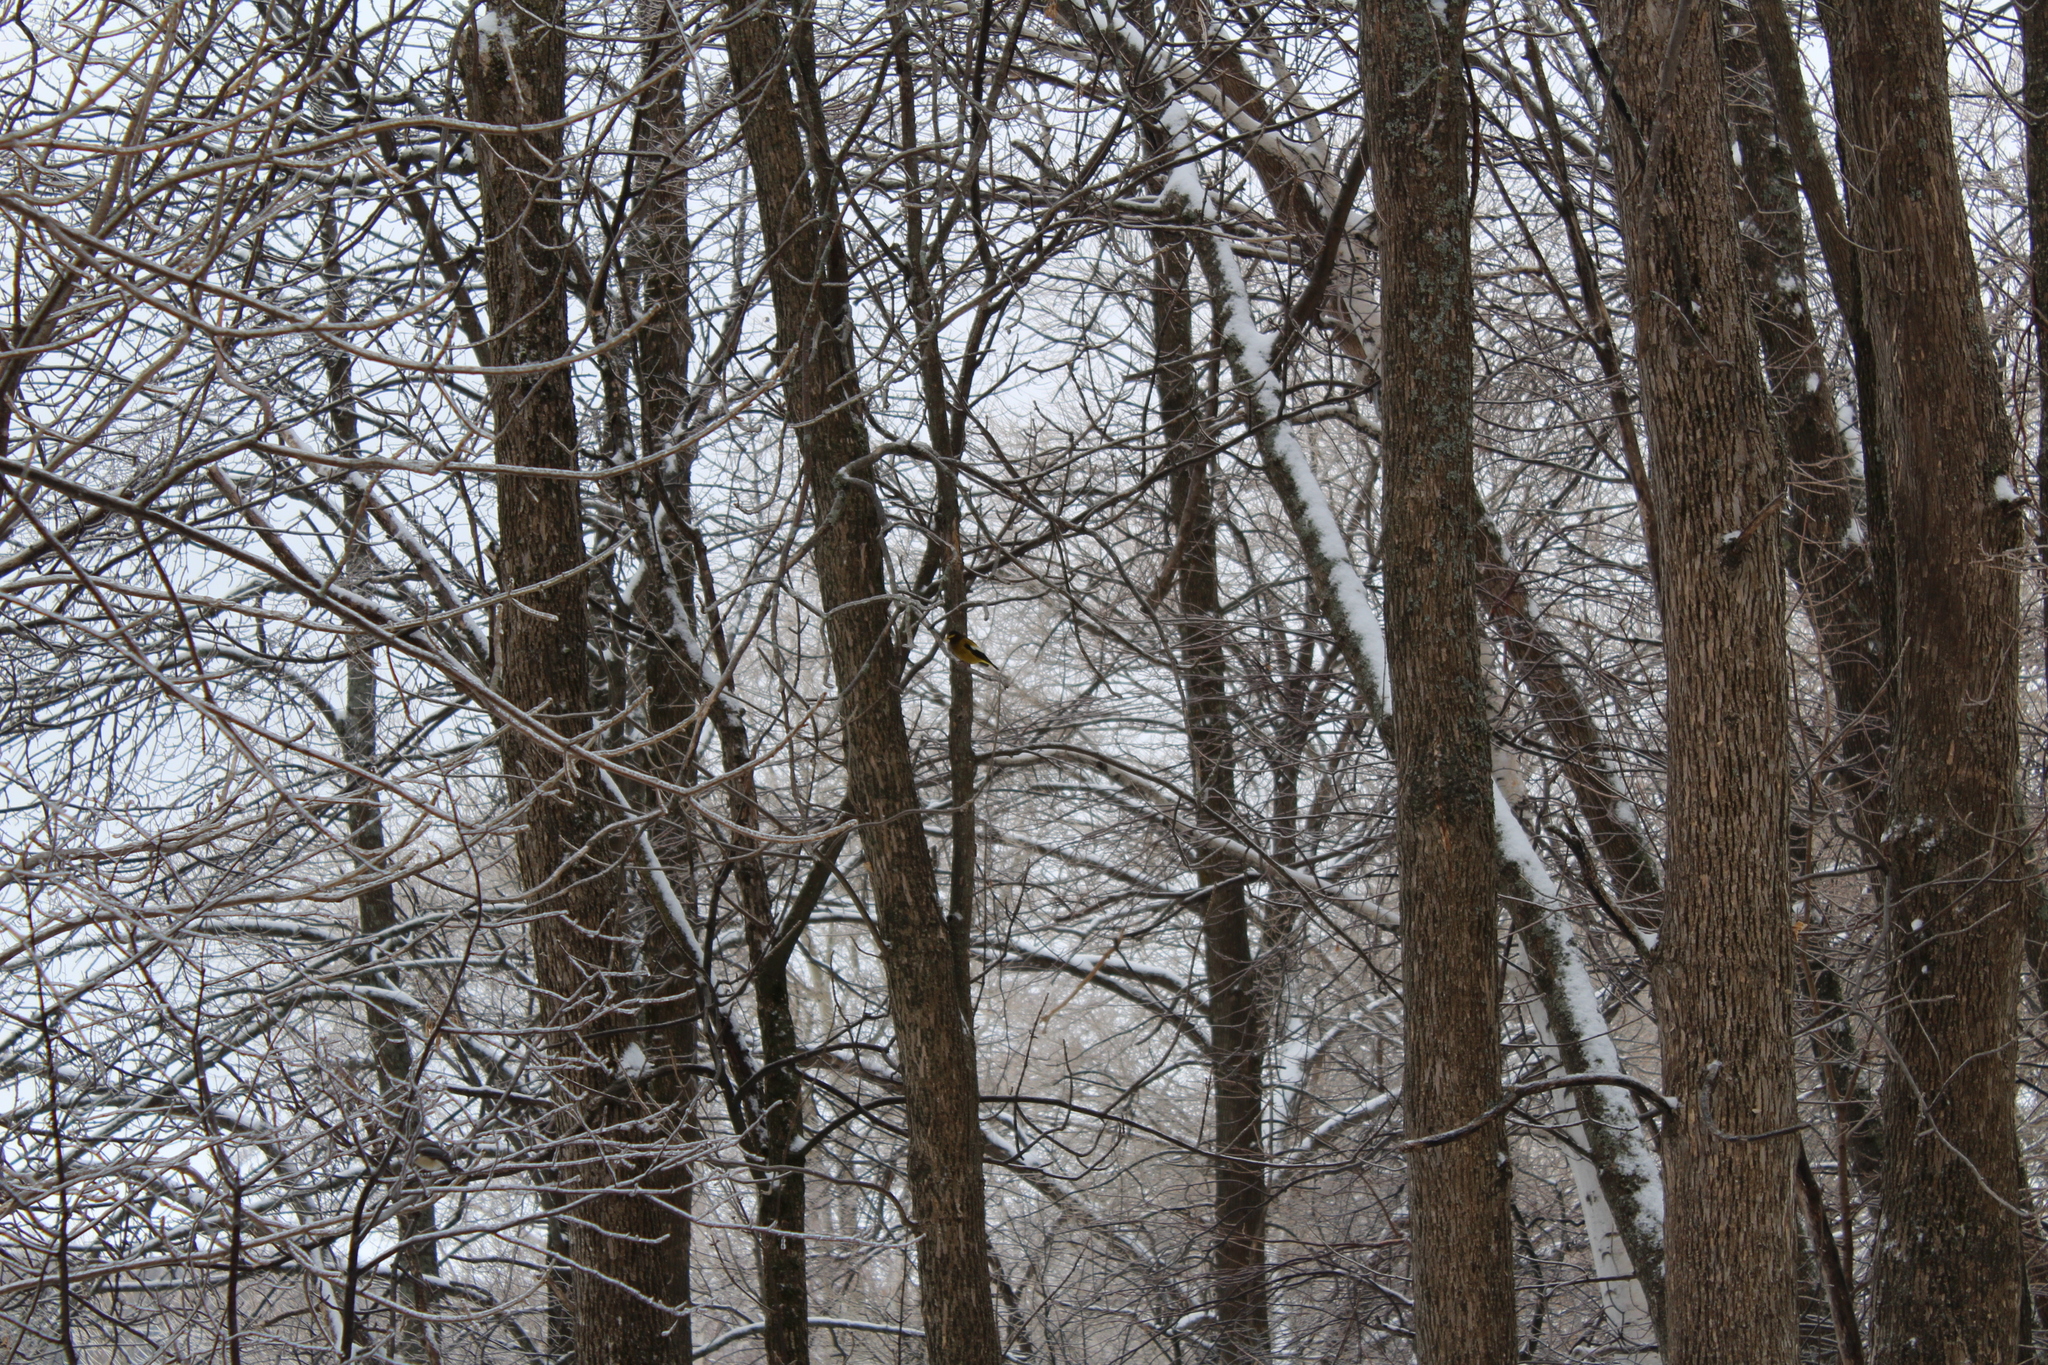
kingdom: Animalia
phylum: Chordata
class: Aves
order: Passeriformes
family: Fringillidae
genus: Hesperiphona
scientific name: Hesperiphona vespertina
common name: Evening grosbeak
